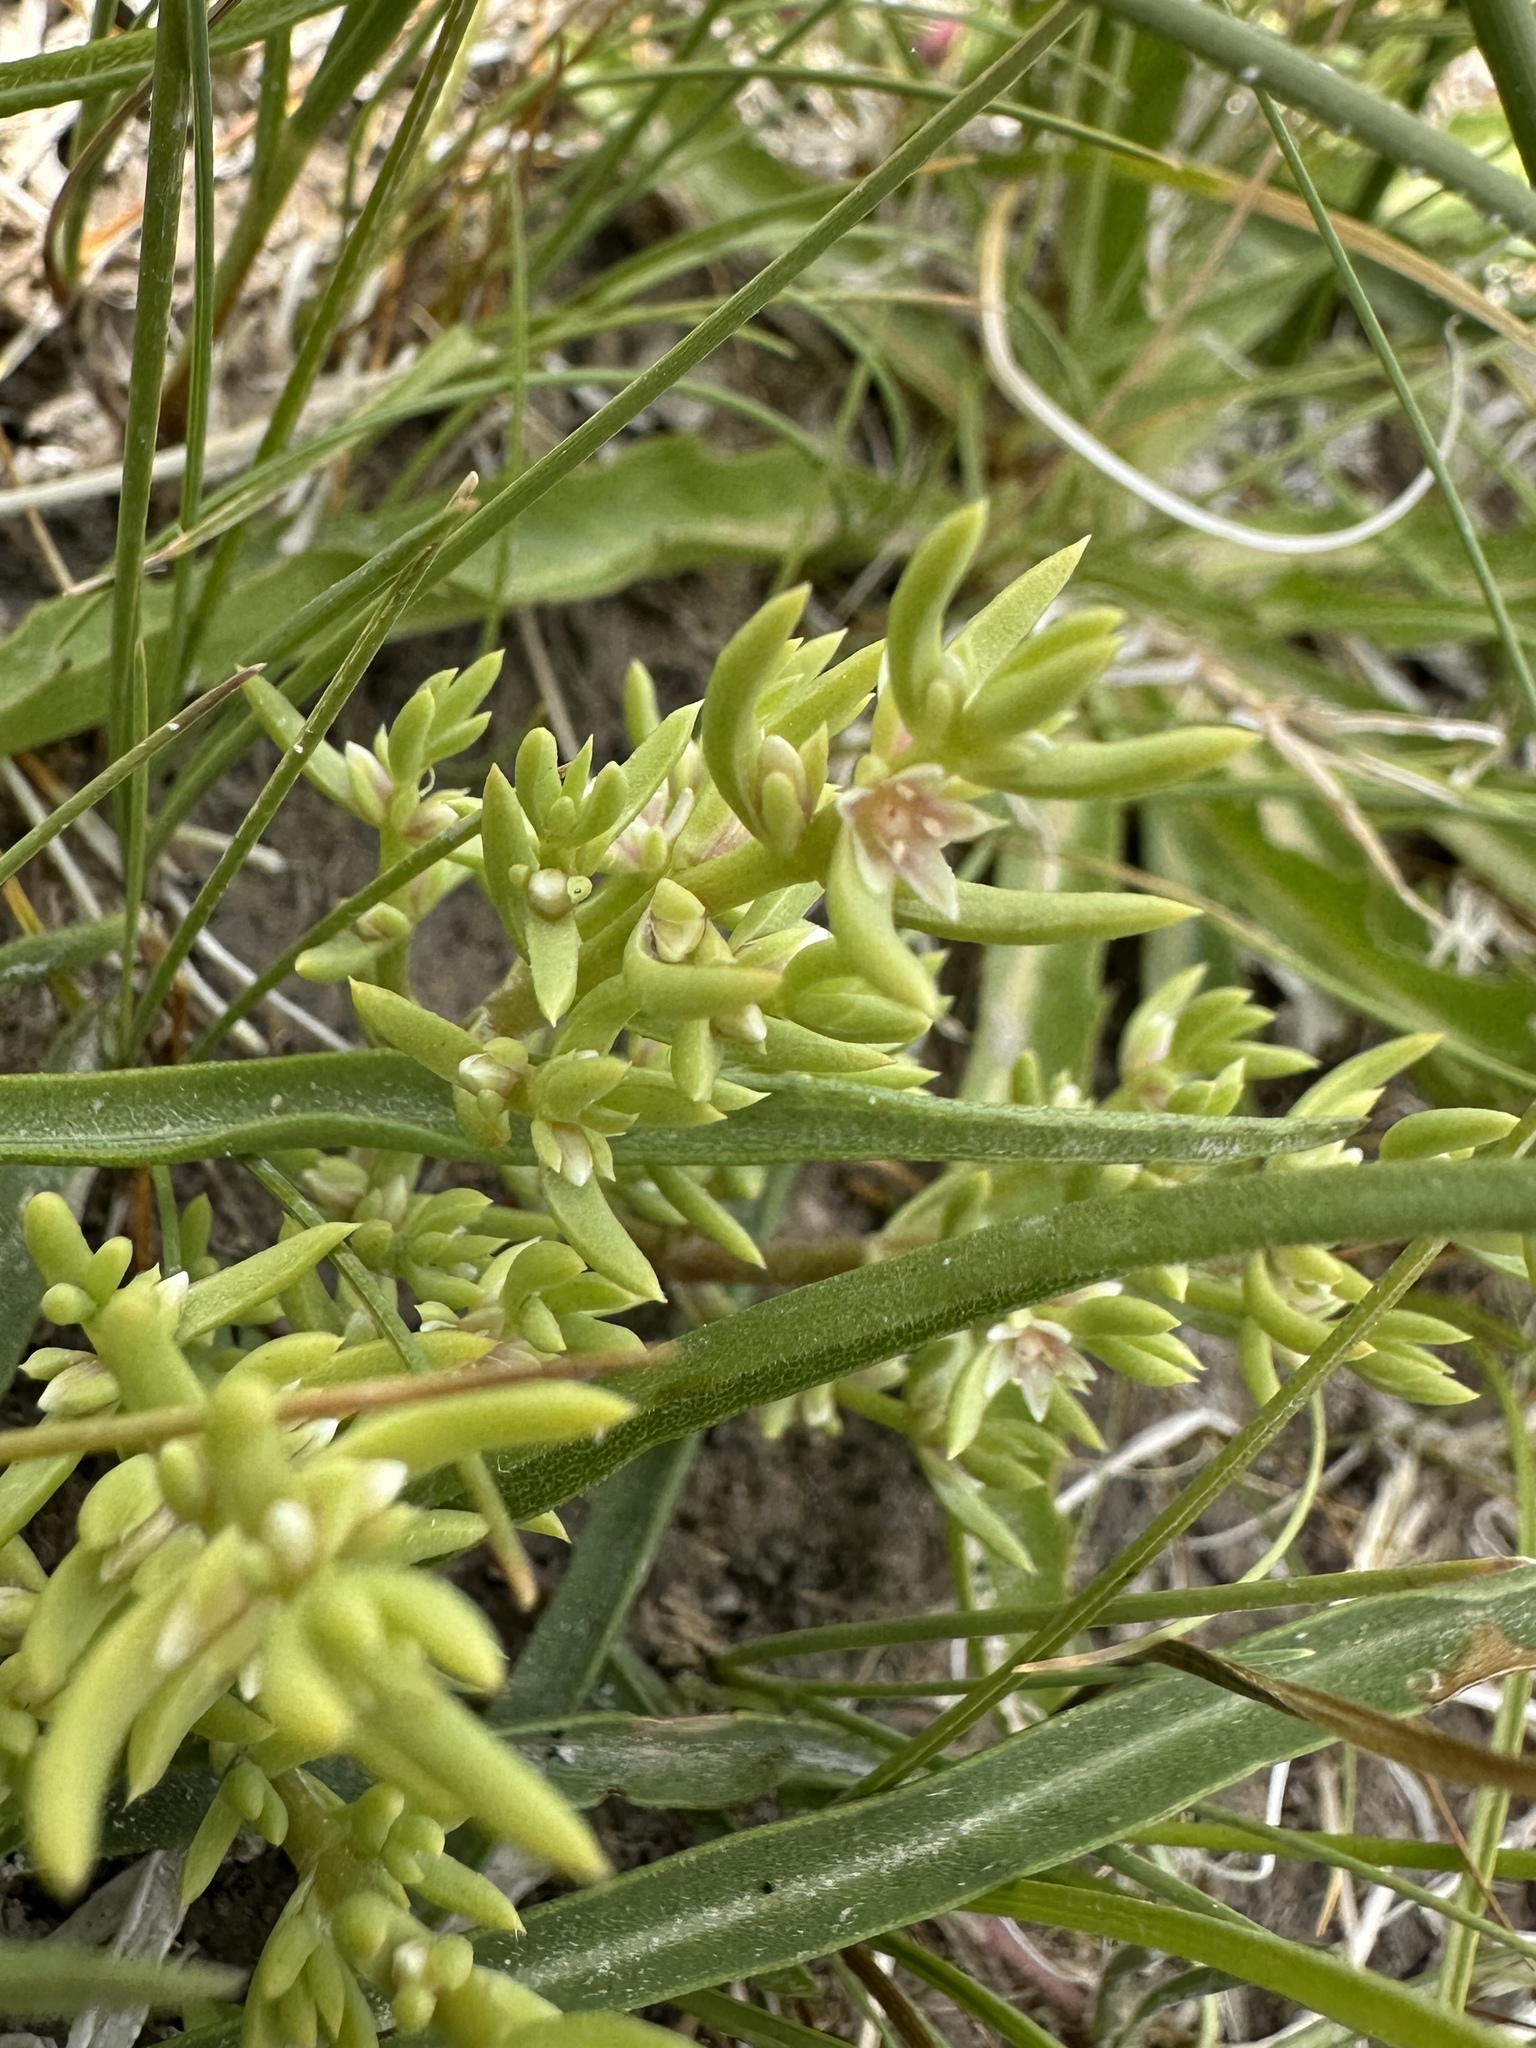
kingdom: Plantae
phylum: Tracheophyta
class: Magnoliopsida
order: Caryophyllales
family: Amaranthaceae
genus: Nitrophila
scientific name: Nitrophila occidentalis
